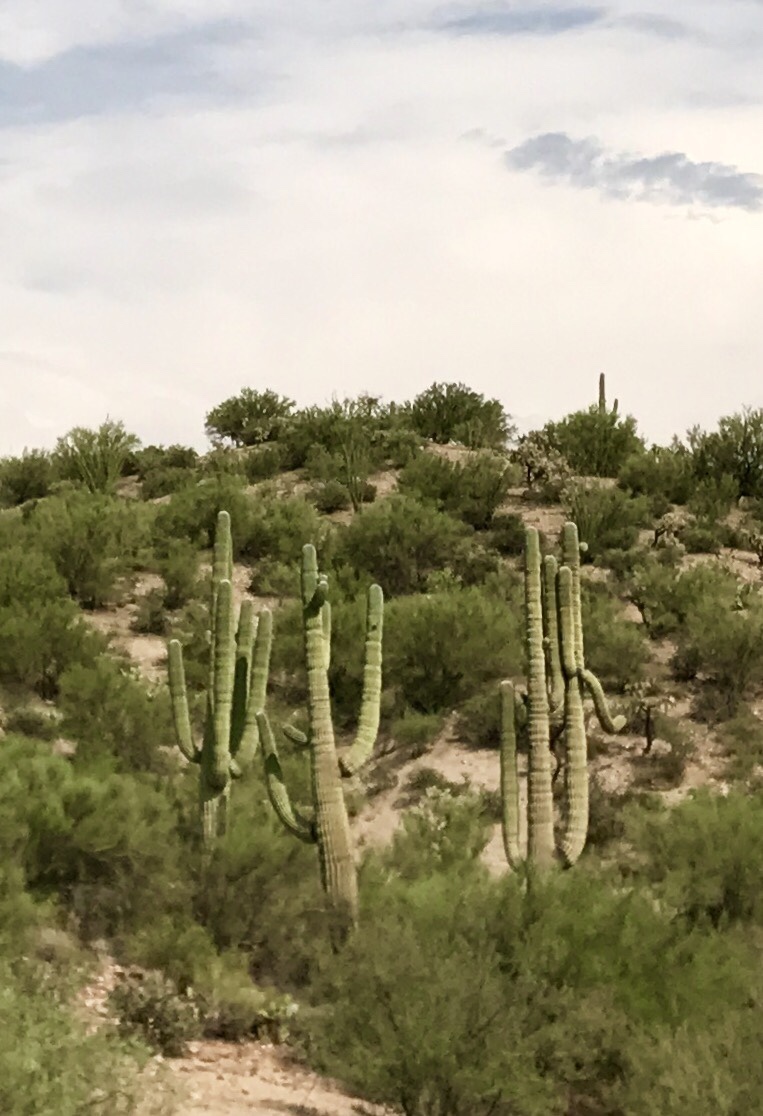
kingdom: Plantae
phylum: Tracheophyta
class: Magnoliopsida
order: Caryophyllales
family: Cactaceae
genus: Carnegiea
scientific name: Carnegiea gigantea
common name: Saguaro
